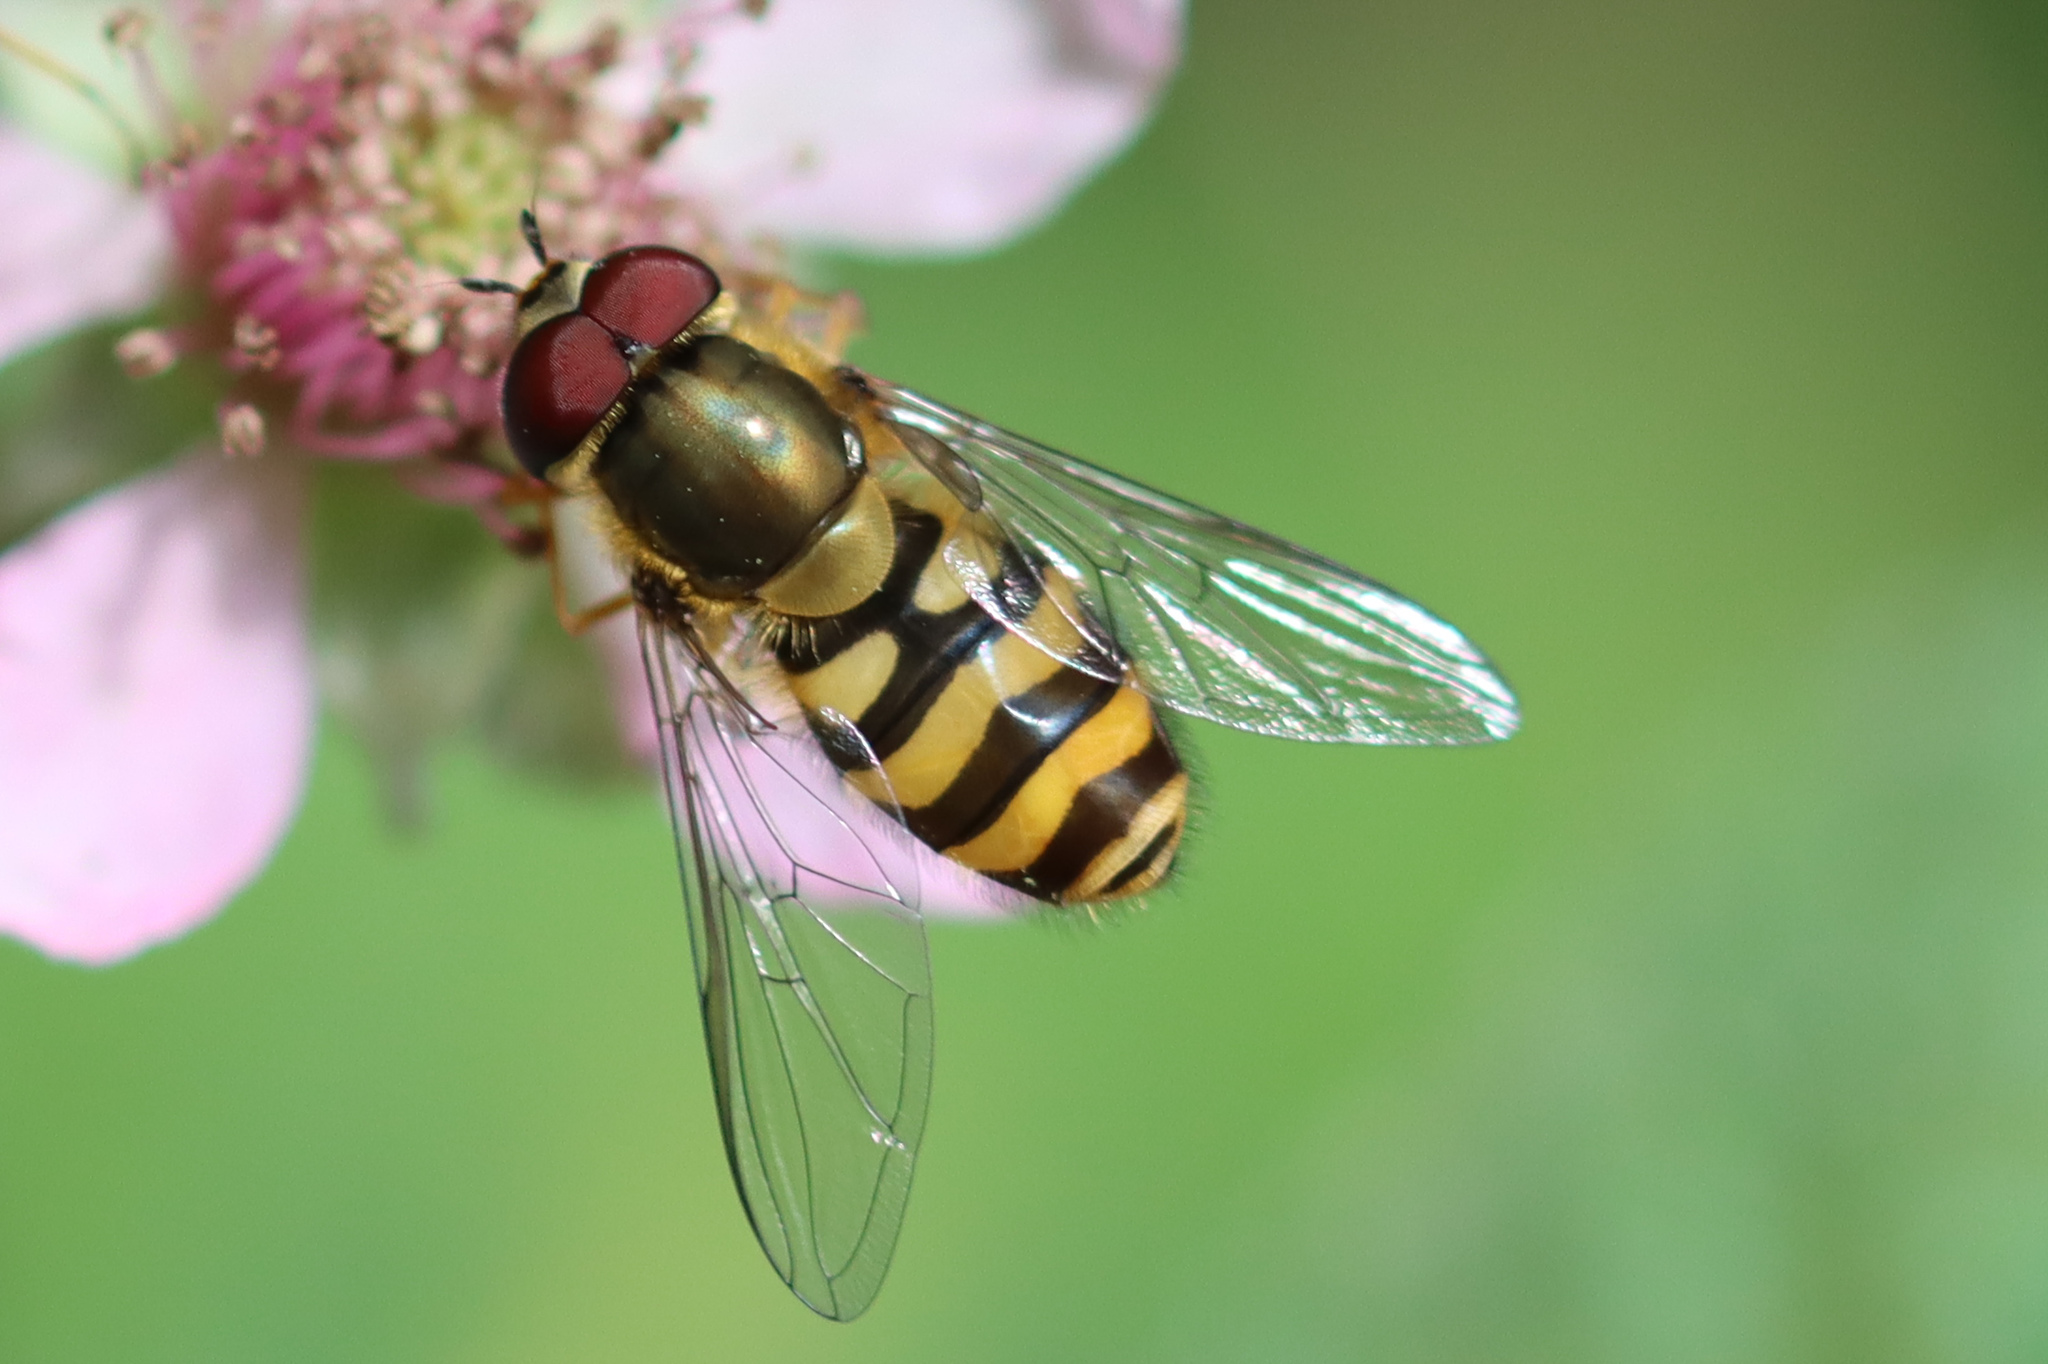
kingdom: Animalia
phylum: Arthropoda
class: Insecta
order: Diptera
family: Syrphidae
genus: Syrphus
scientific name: Syrphus torvus
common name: Hairy-eyed flower fly
